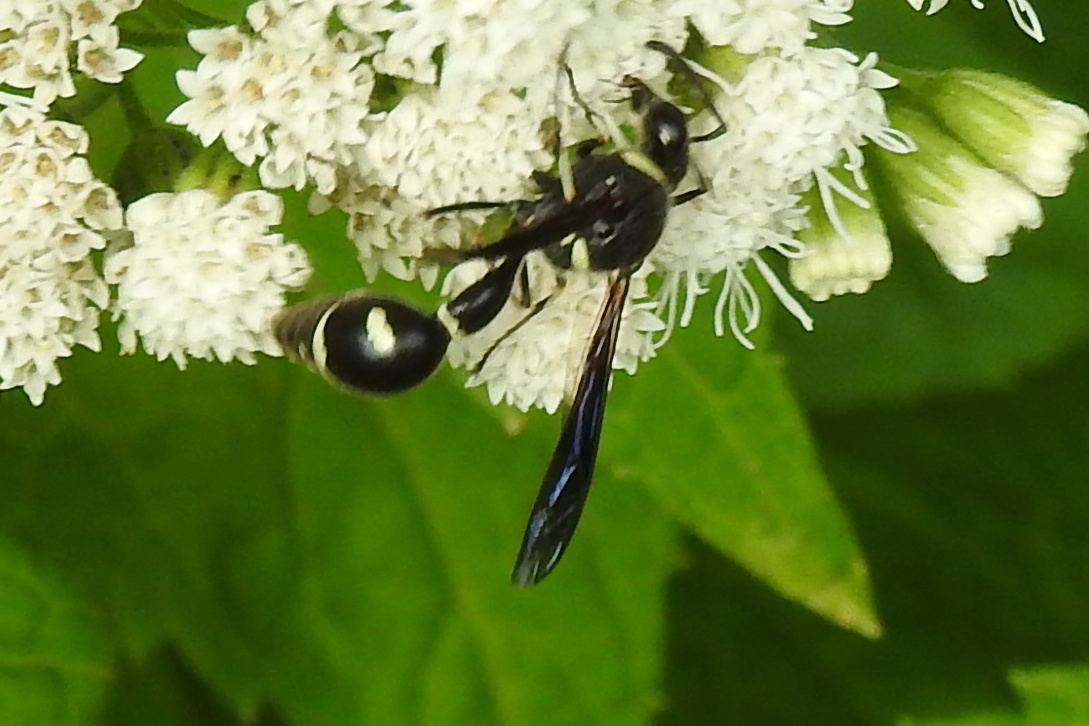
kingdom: Animalia
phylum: Arthropoda
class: Insecta
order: Hymenoptera
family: Vespidae
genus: Eumenes
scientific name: Eumenes fraternus
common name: Fraternal potter wasp
